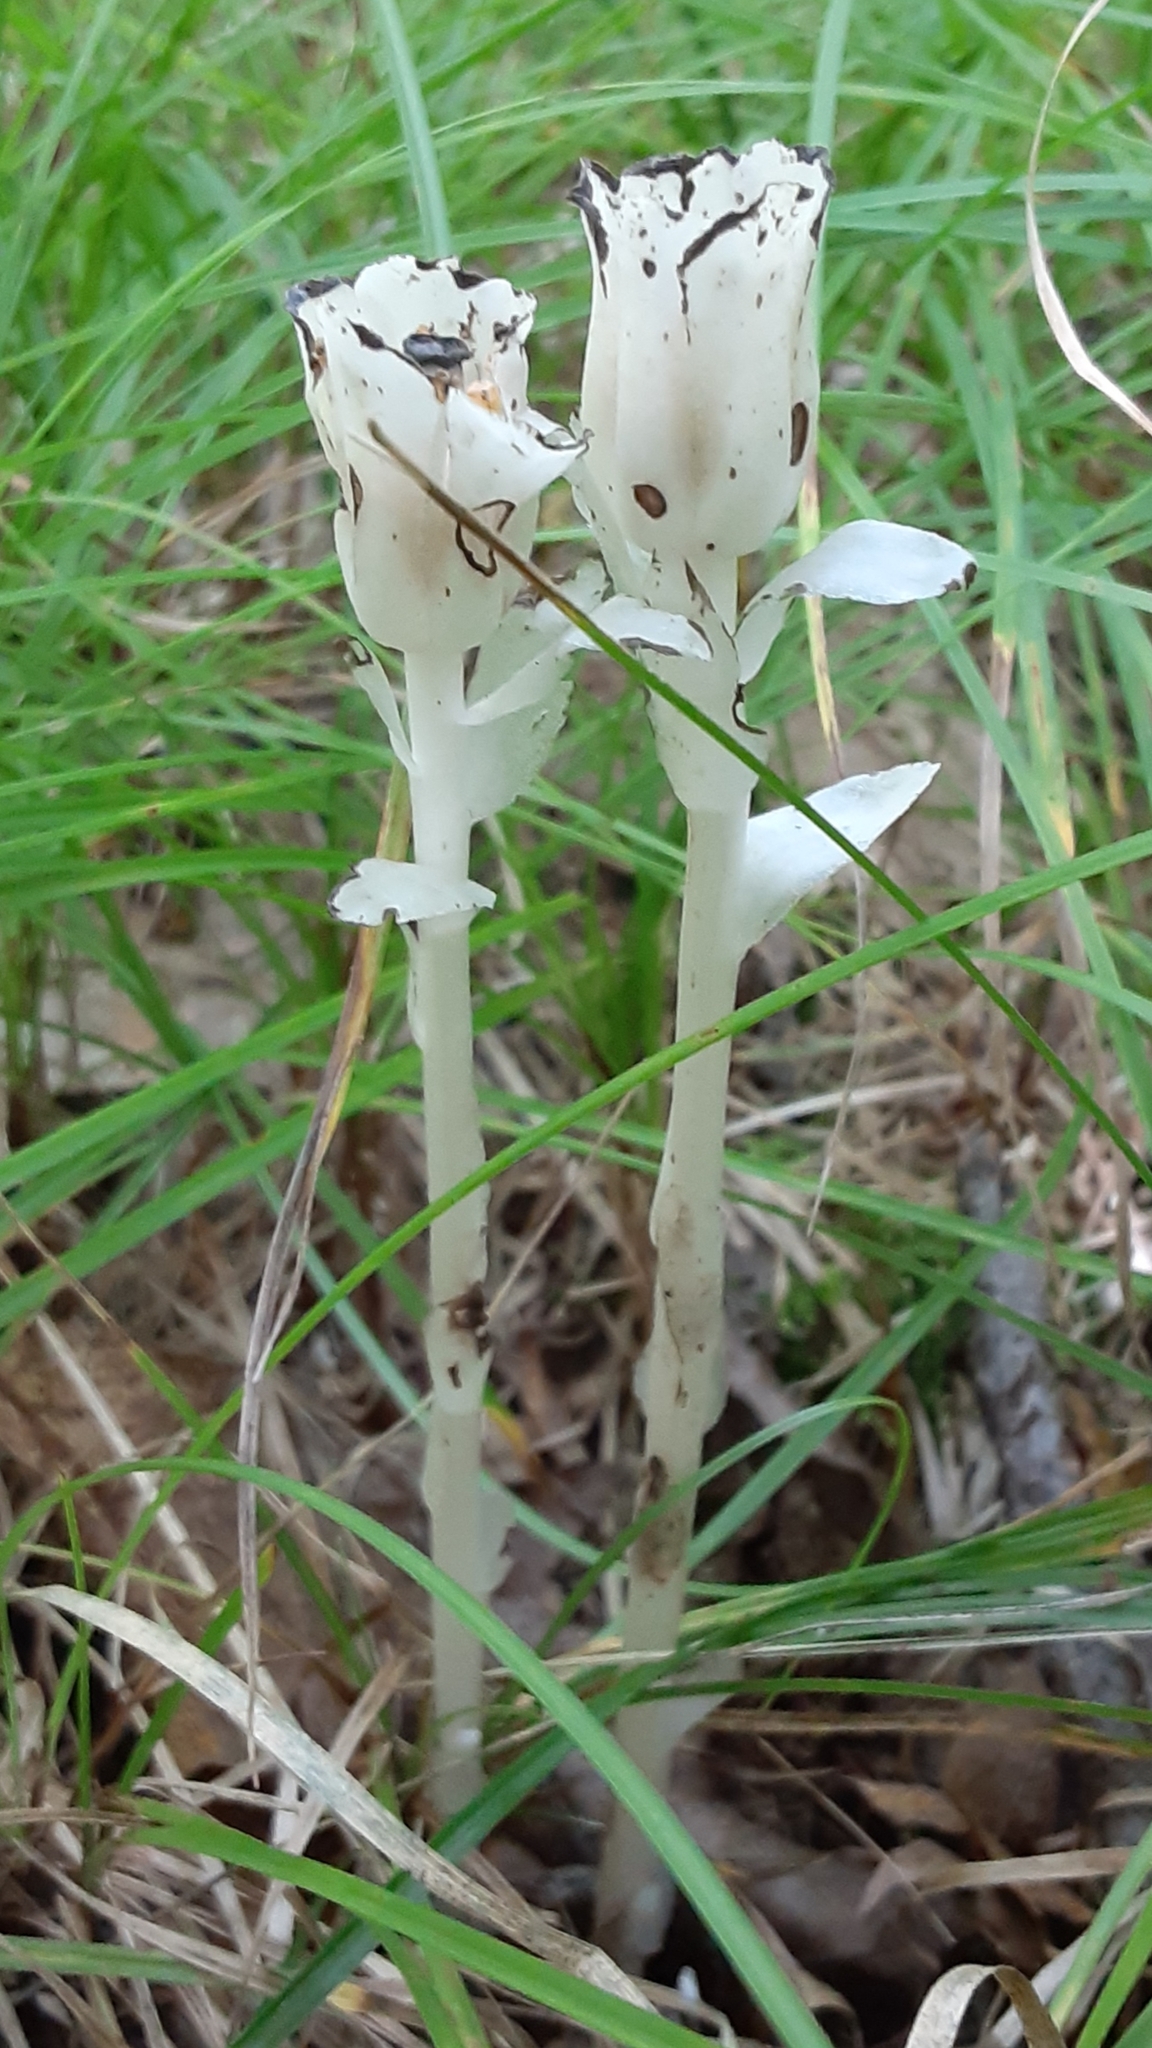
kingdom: Plantae
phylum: Tracheophyta
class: Magnoliopsida
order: Ericales
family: Ericaceae
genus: Monotropa
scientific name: Monotropa uniflora
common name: Convulsion root
